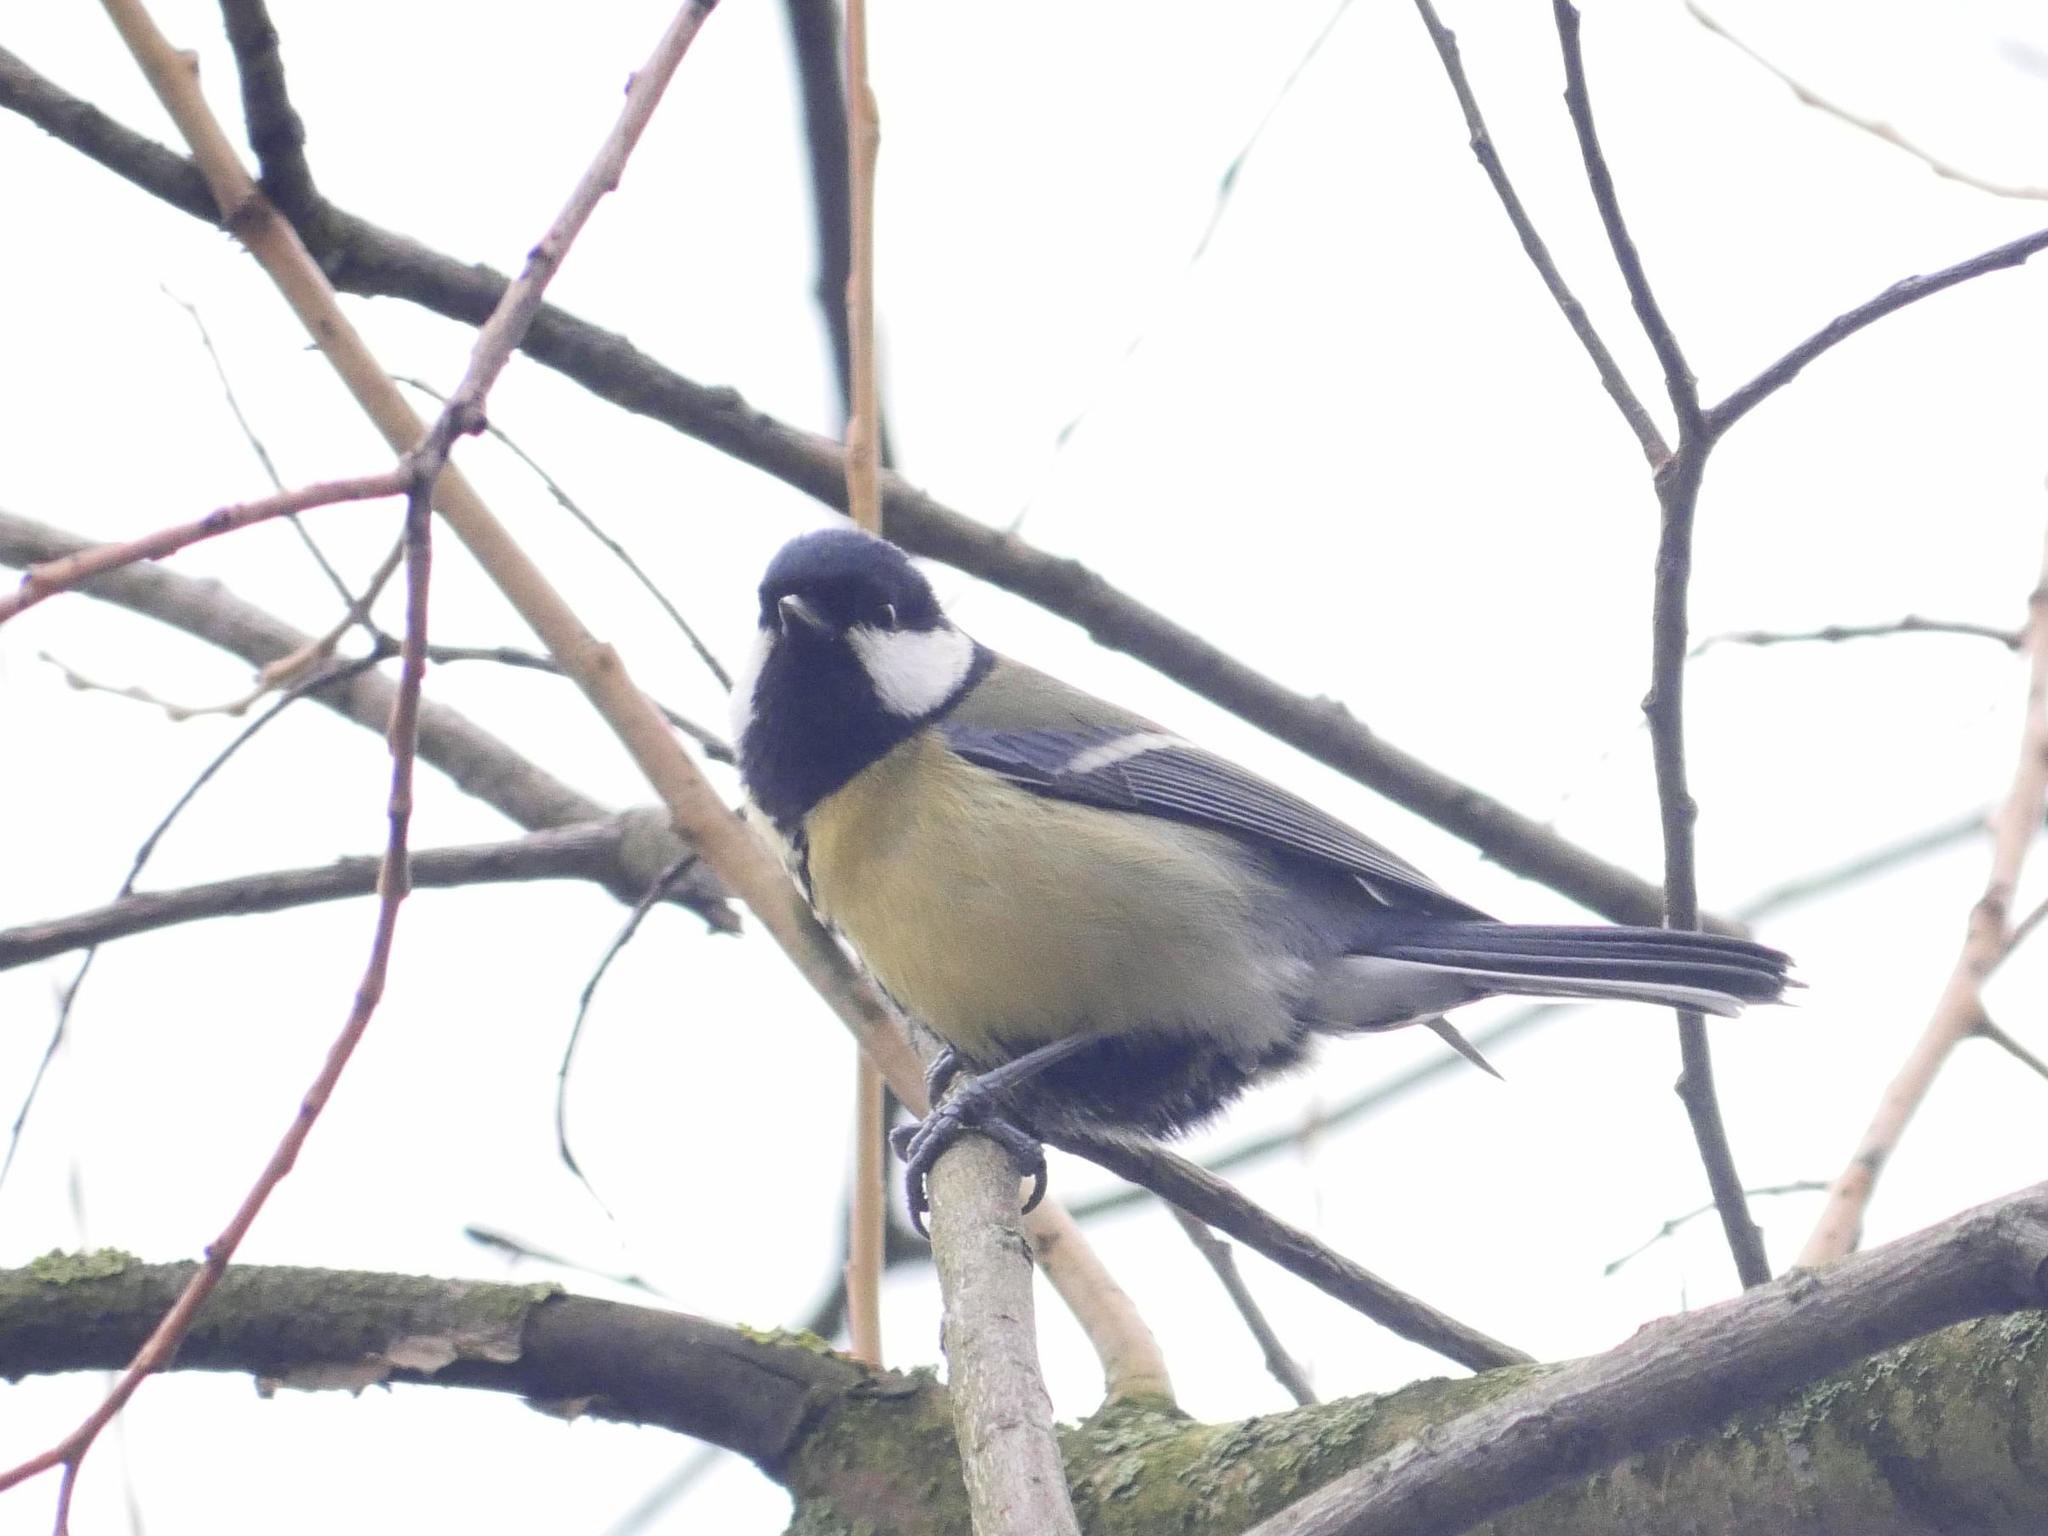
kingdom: Animalia
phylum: Chordata
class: Aves
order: Passeriformes
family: Paridae
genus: Parus
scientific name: Parus major
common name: Great tit
